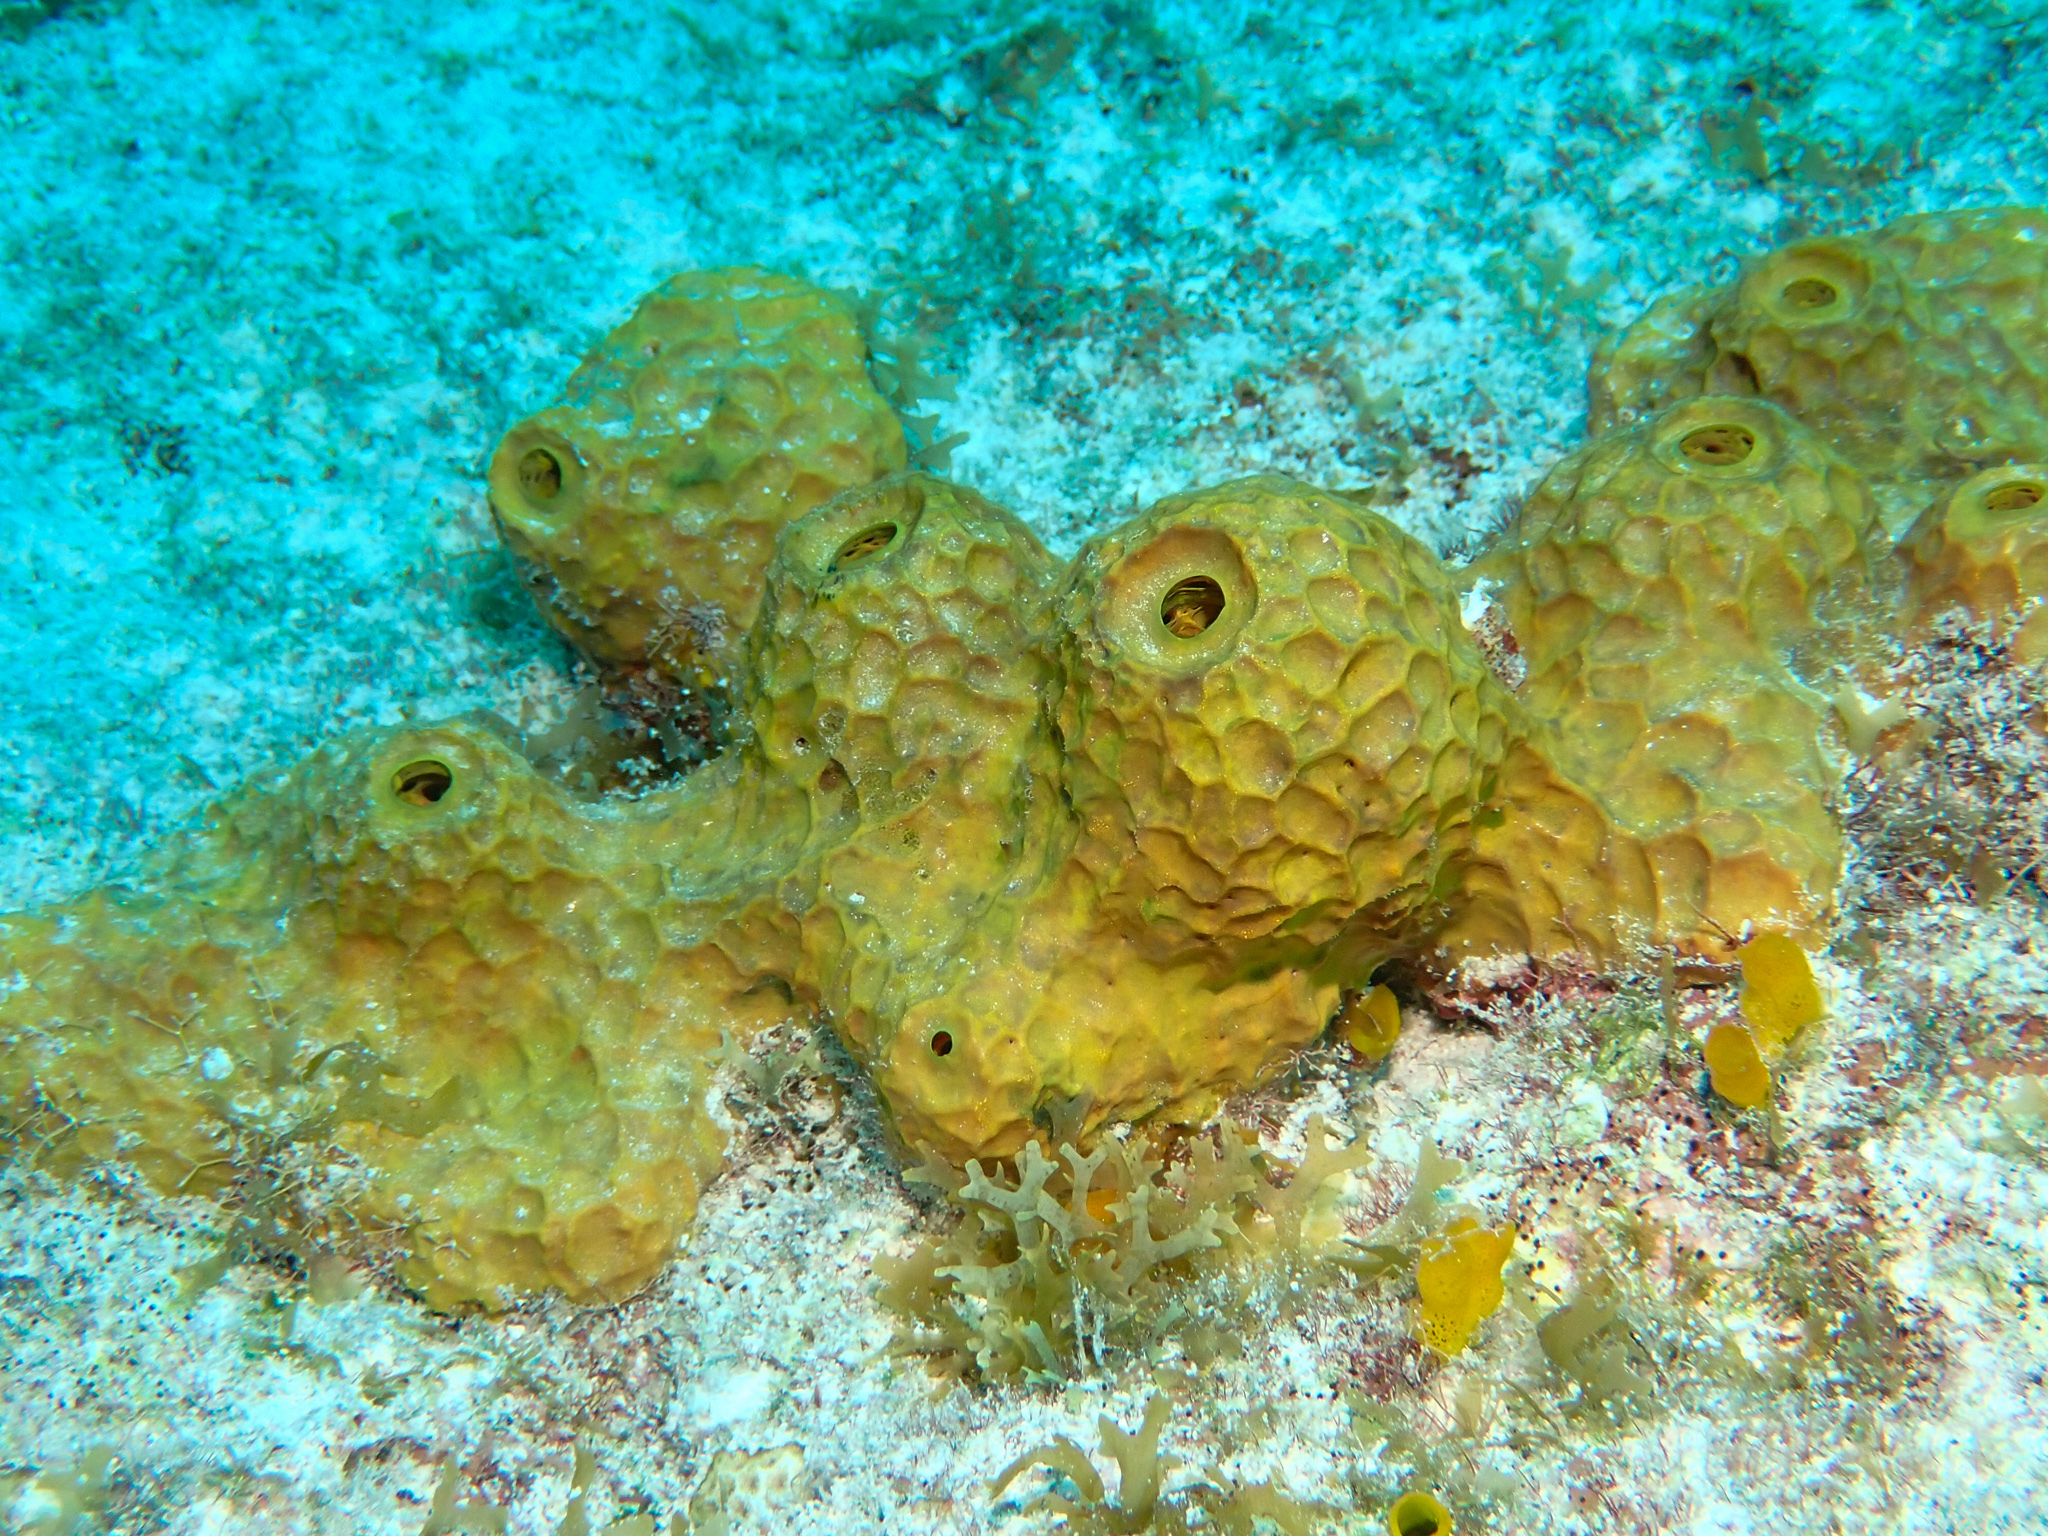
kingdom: Animalia
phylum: Porifera
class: Demospongiae
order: Verongiida
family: Aplysinidae
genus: Verongula
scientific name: Verongula rigida
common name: Pitted sponge
